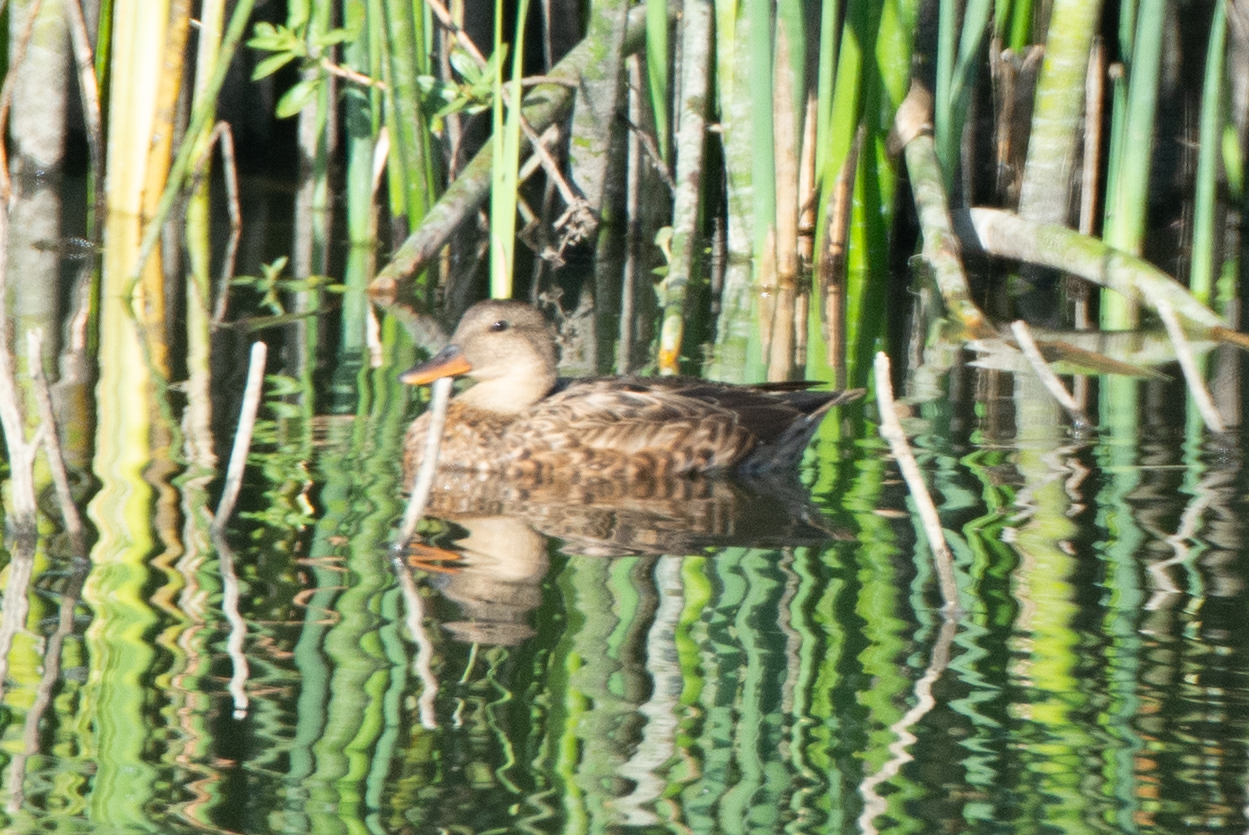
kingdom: Animalia
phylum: Chordata
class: Aves
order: Anseriformes
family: Anatidae
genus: Mareca
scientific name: Mareca strepera
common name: Gadwall
